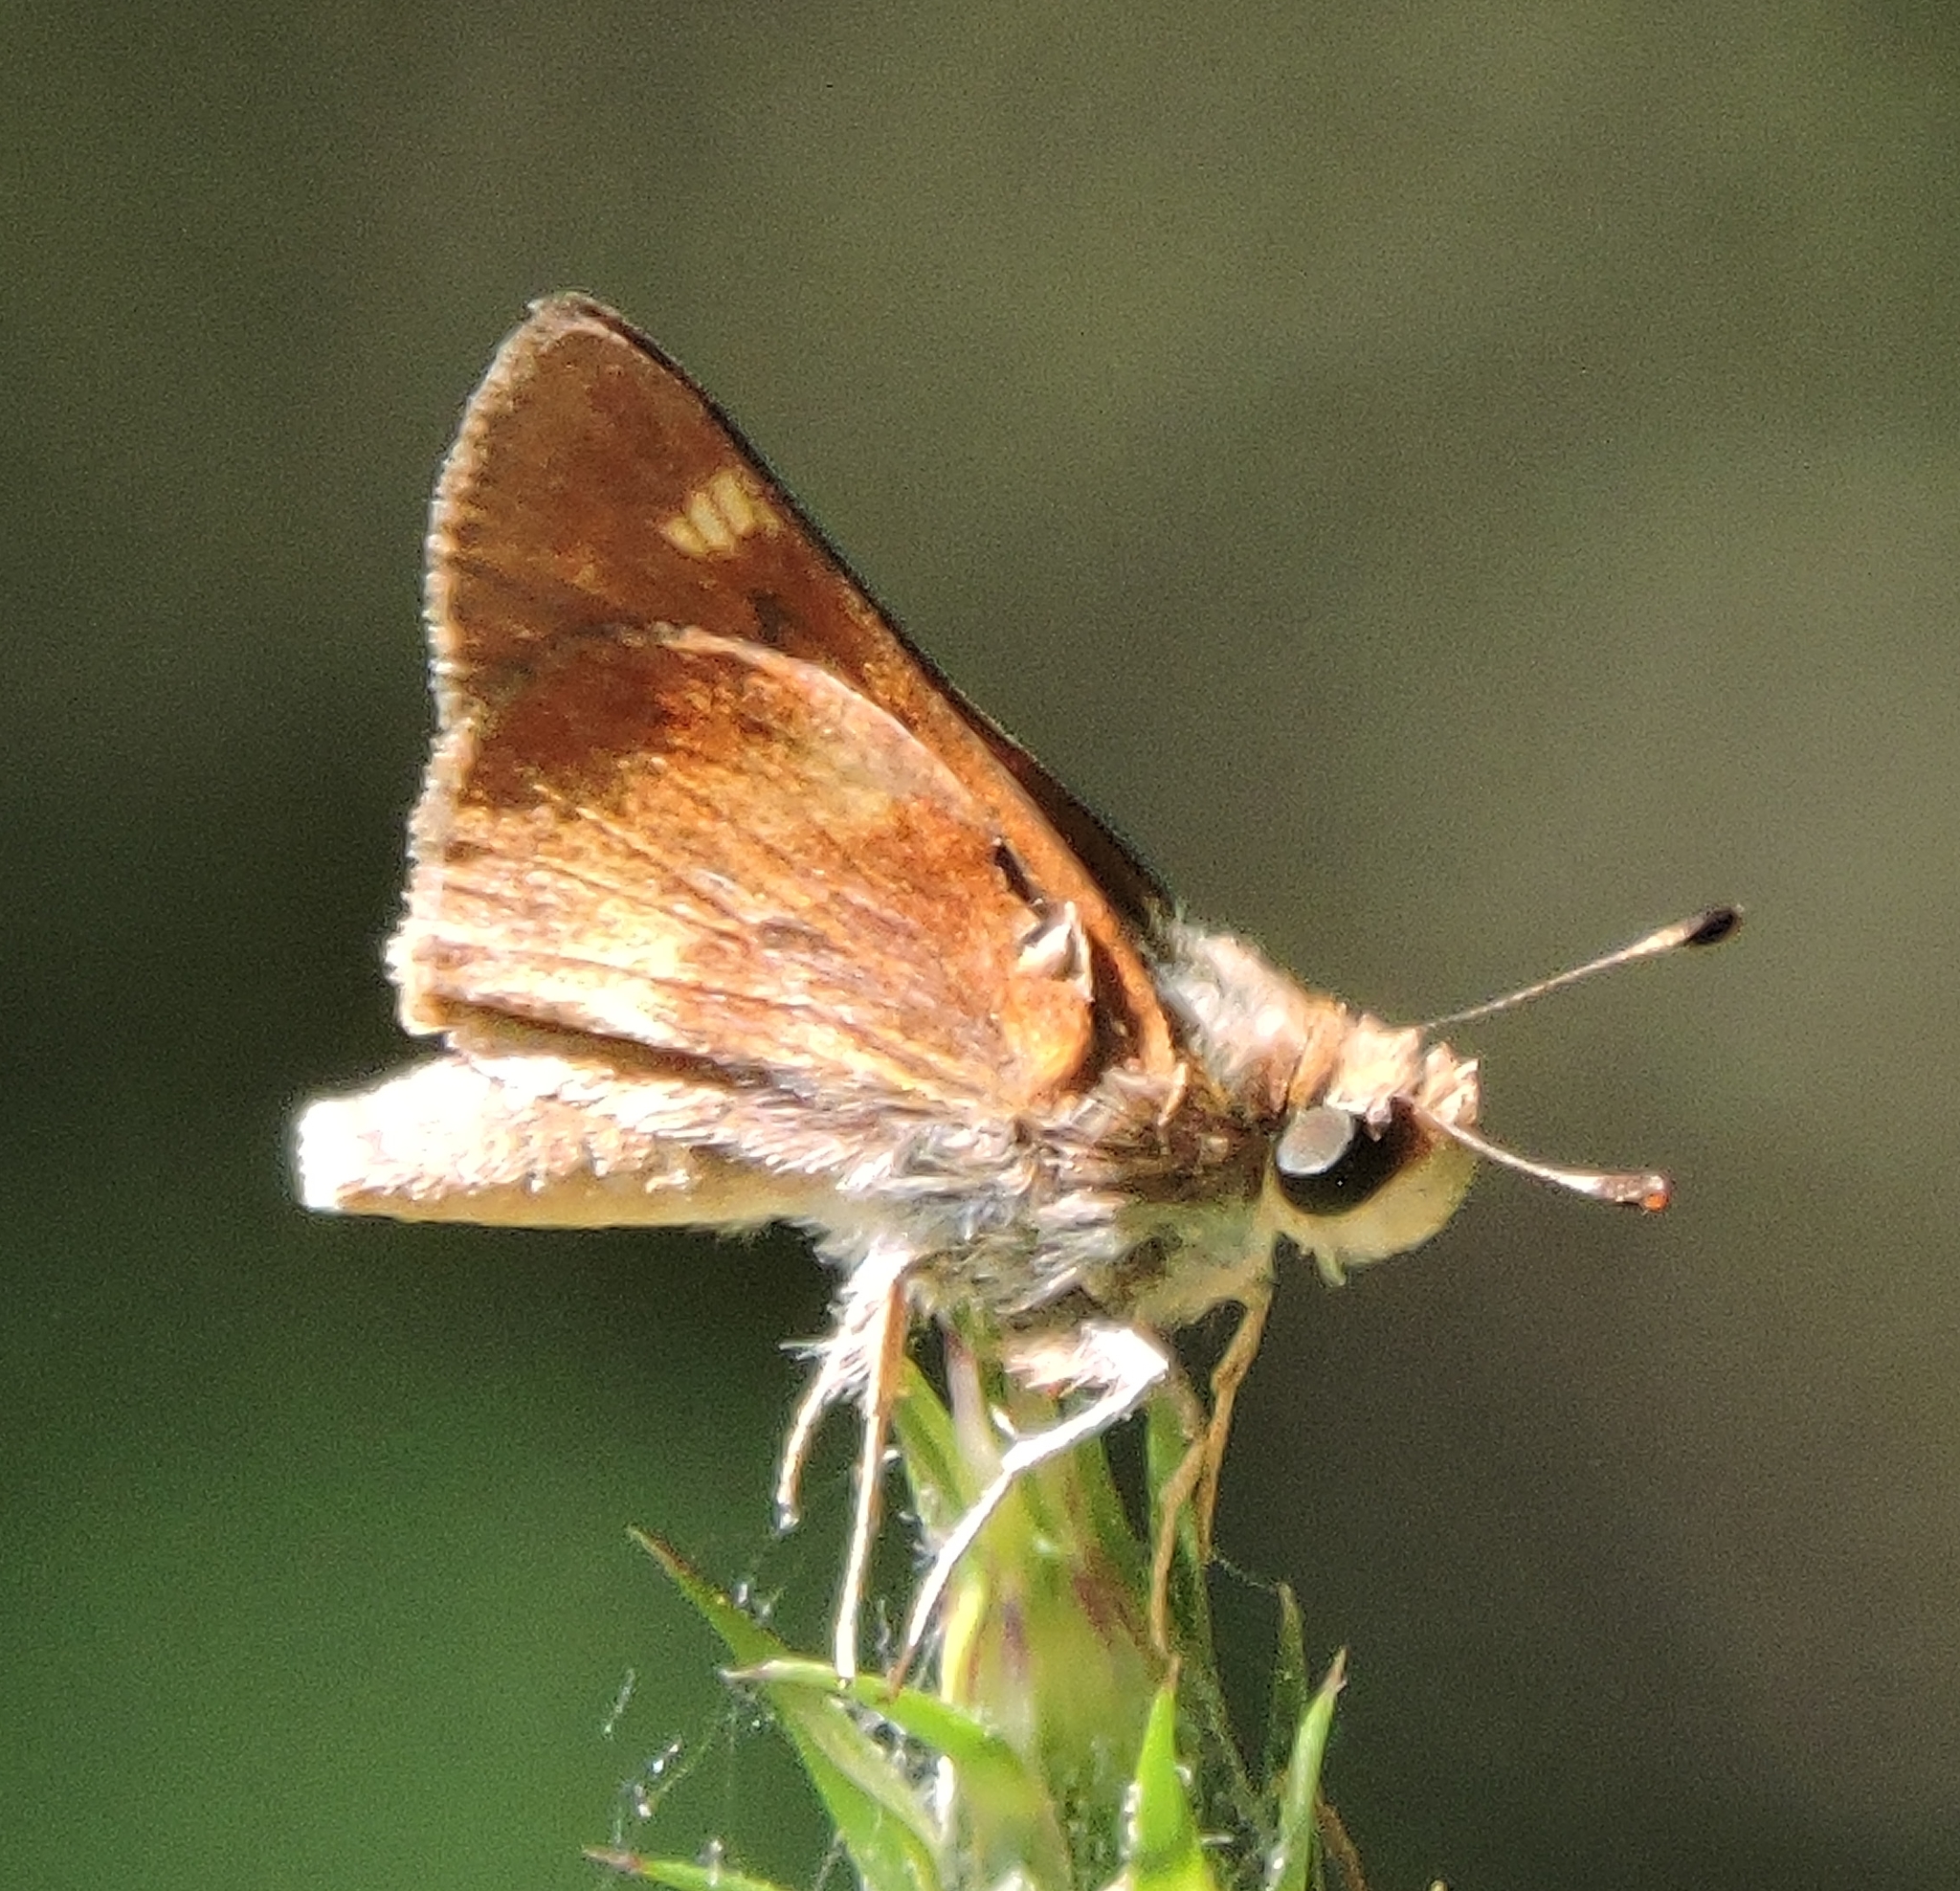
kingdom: Animalia
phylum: Arthropoda
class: Insecta
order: Lepidoptera
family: Hesperiidae
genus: Lon
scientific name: Lon melane
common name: Umber skipper
